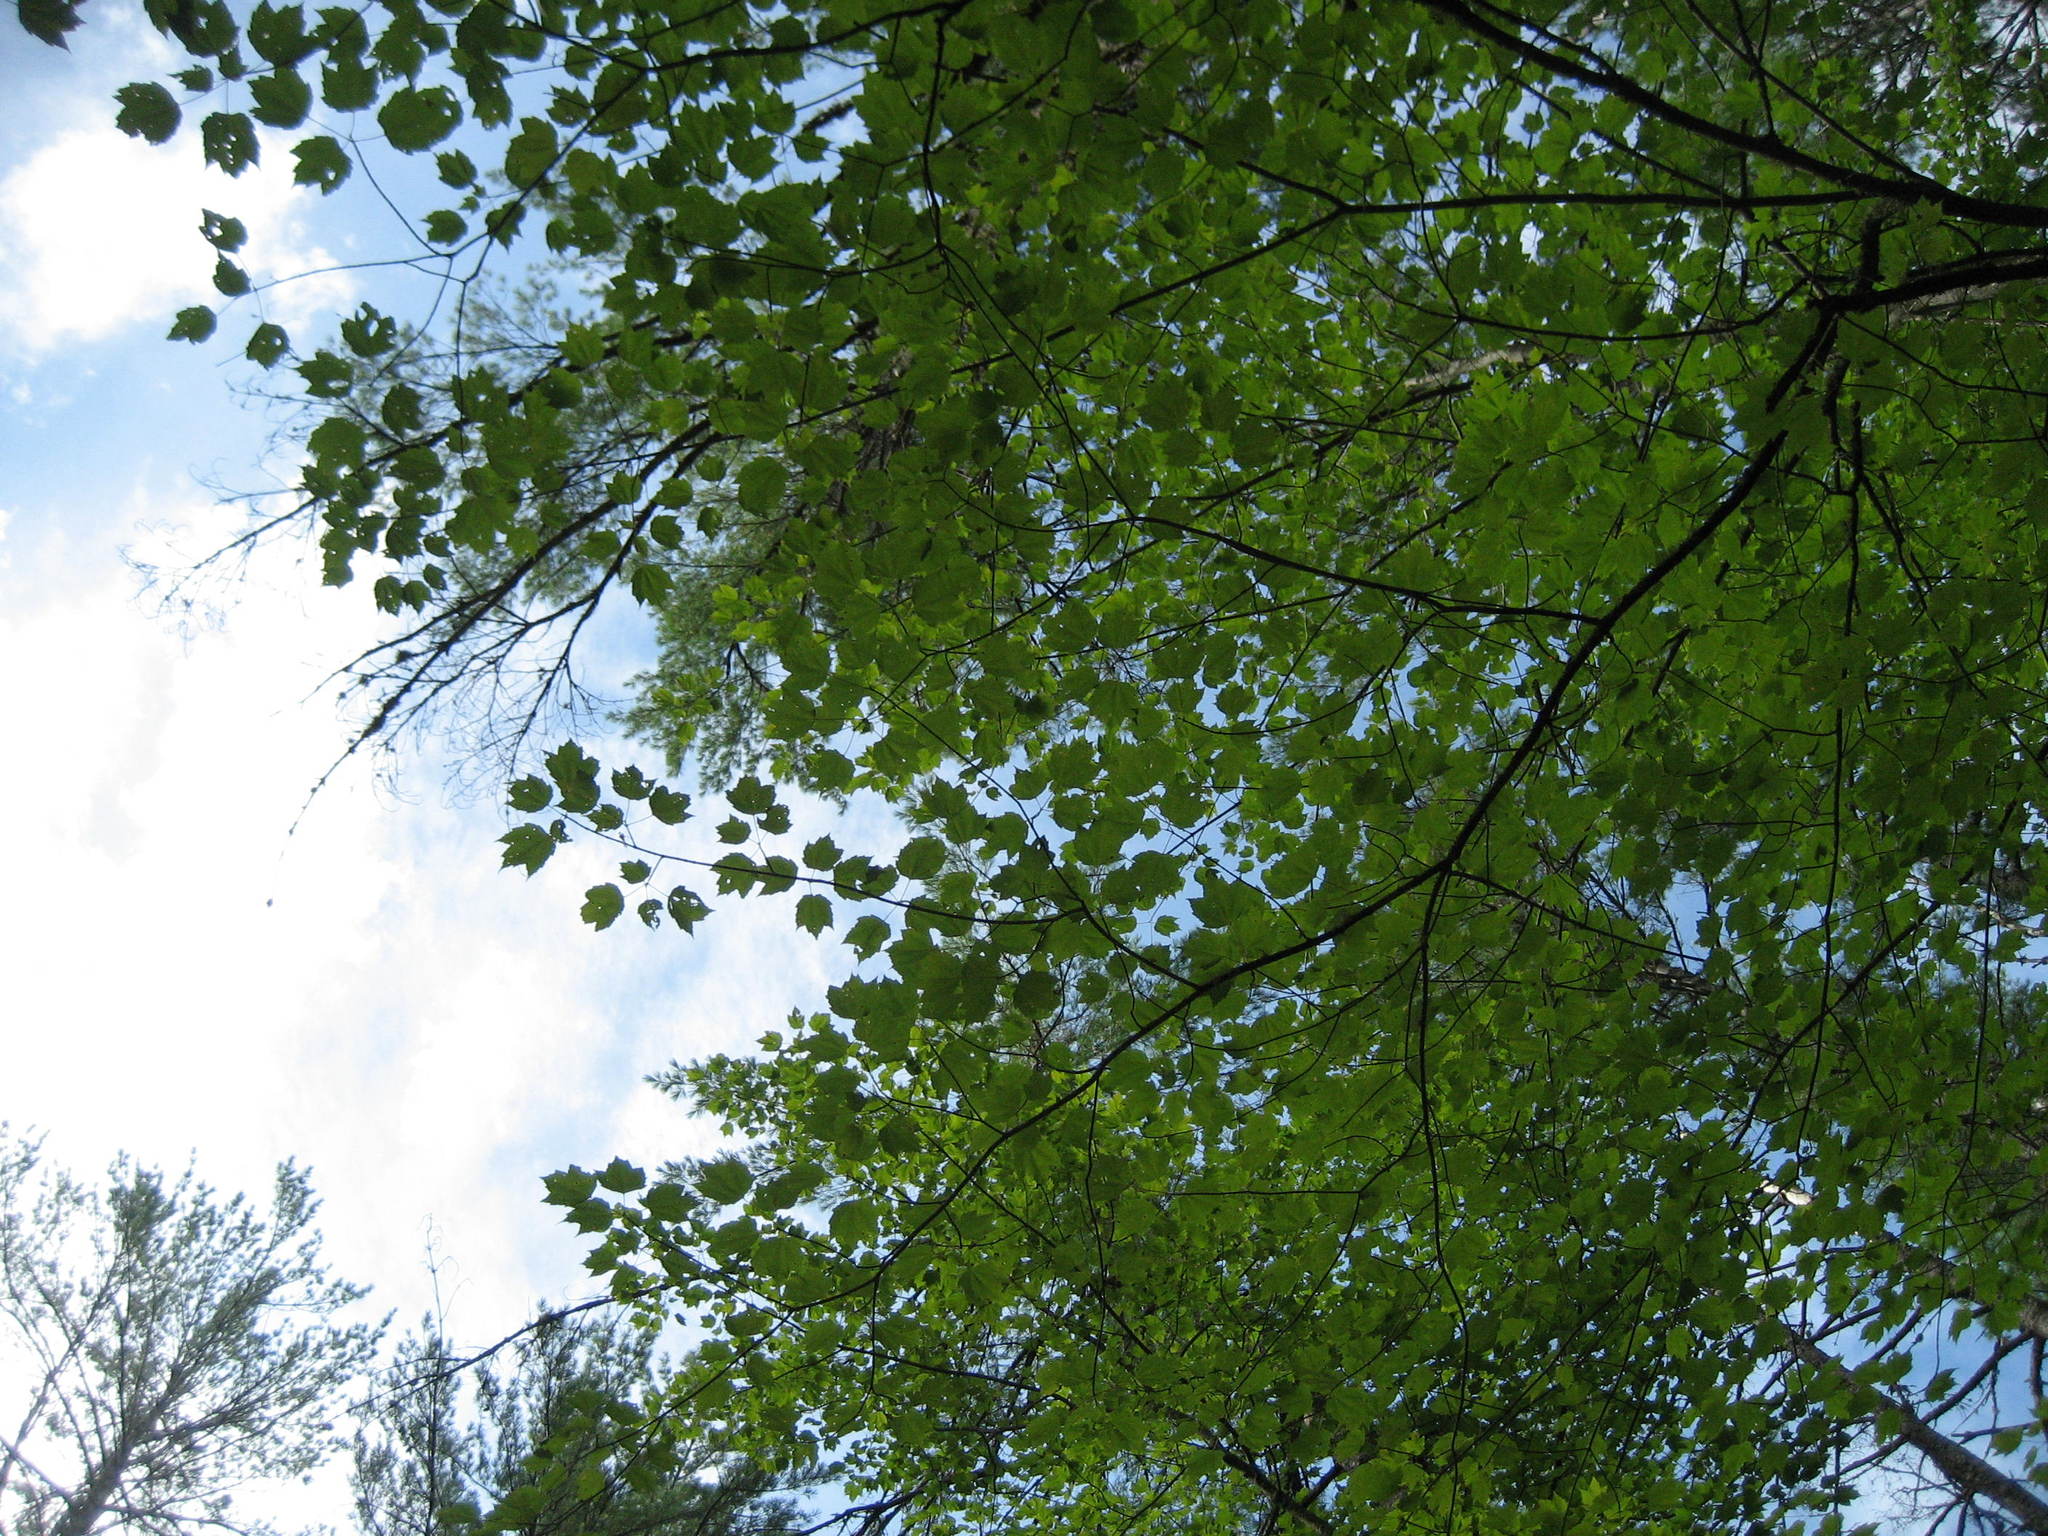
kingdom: Plantae
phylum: Tracheophyta
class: Magnoliopsida
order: Sapindales
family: Sapindaceae
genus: Acer
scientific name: Acer rubrum
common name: Red maple
